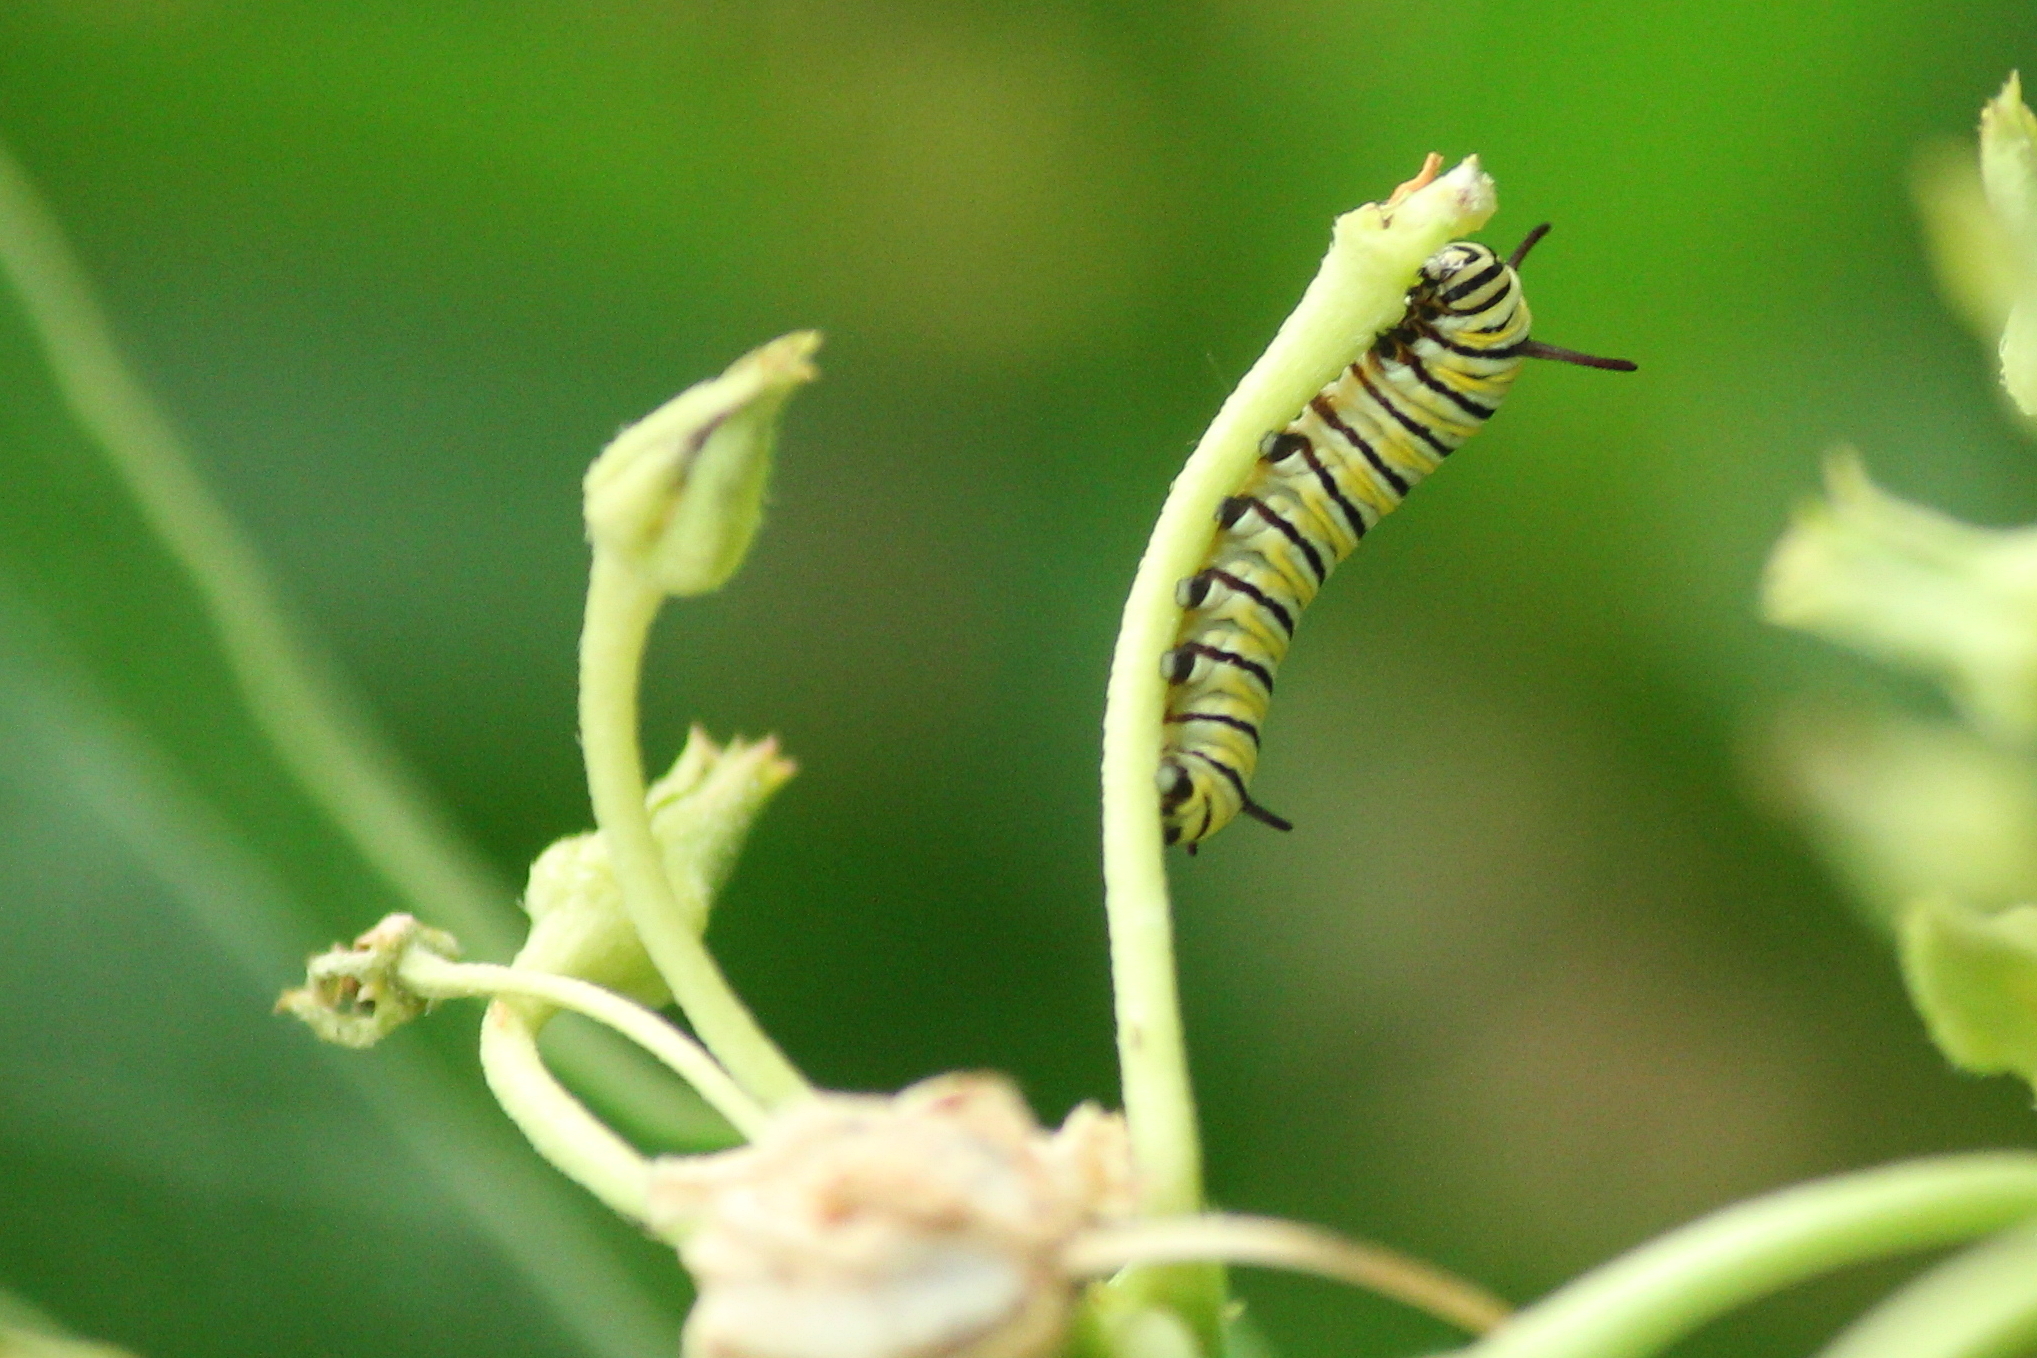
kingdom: Animalia
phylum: Arthropoda
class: Insecta
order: Lepidoptera
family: Nymphalidae
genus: Danaus
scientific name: Danaus plexippus
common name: Monarch
